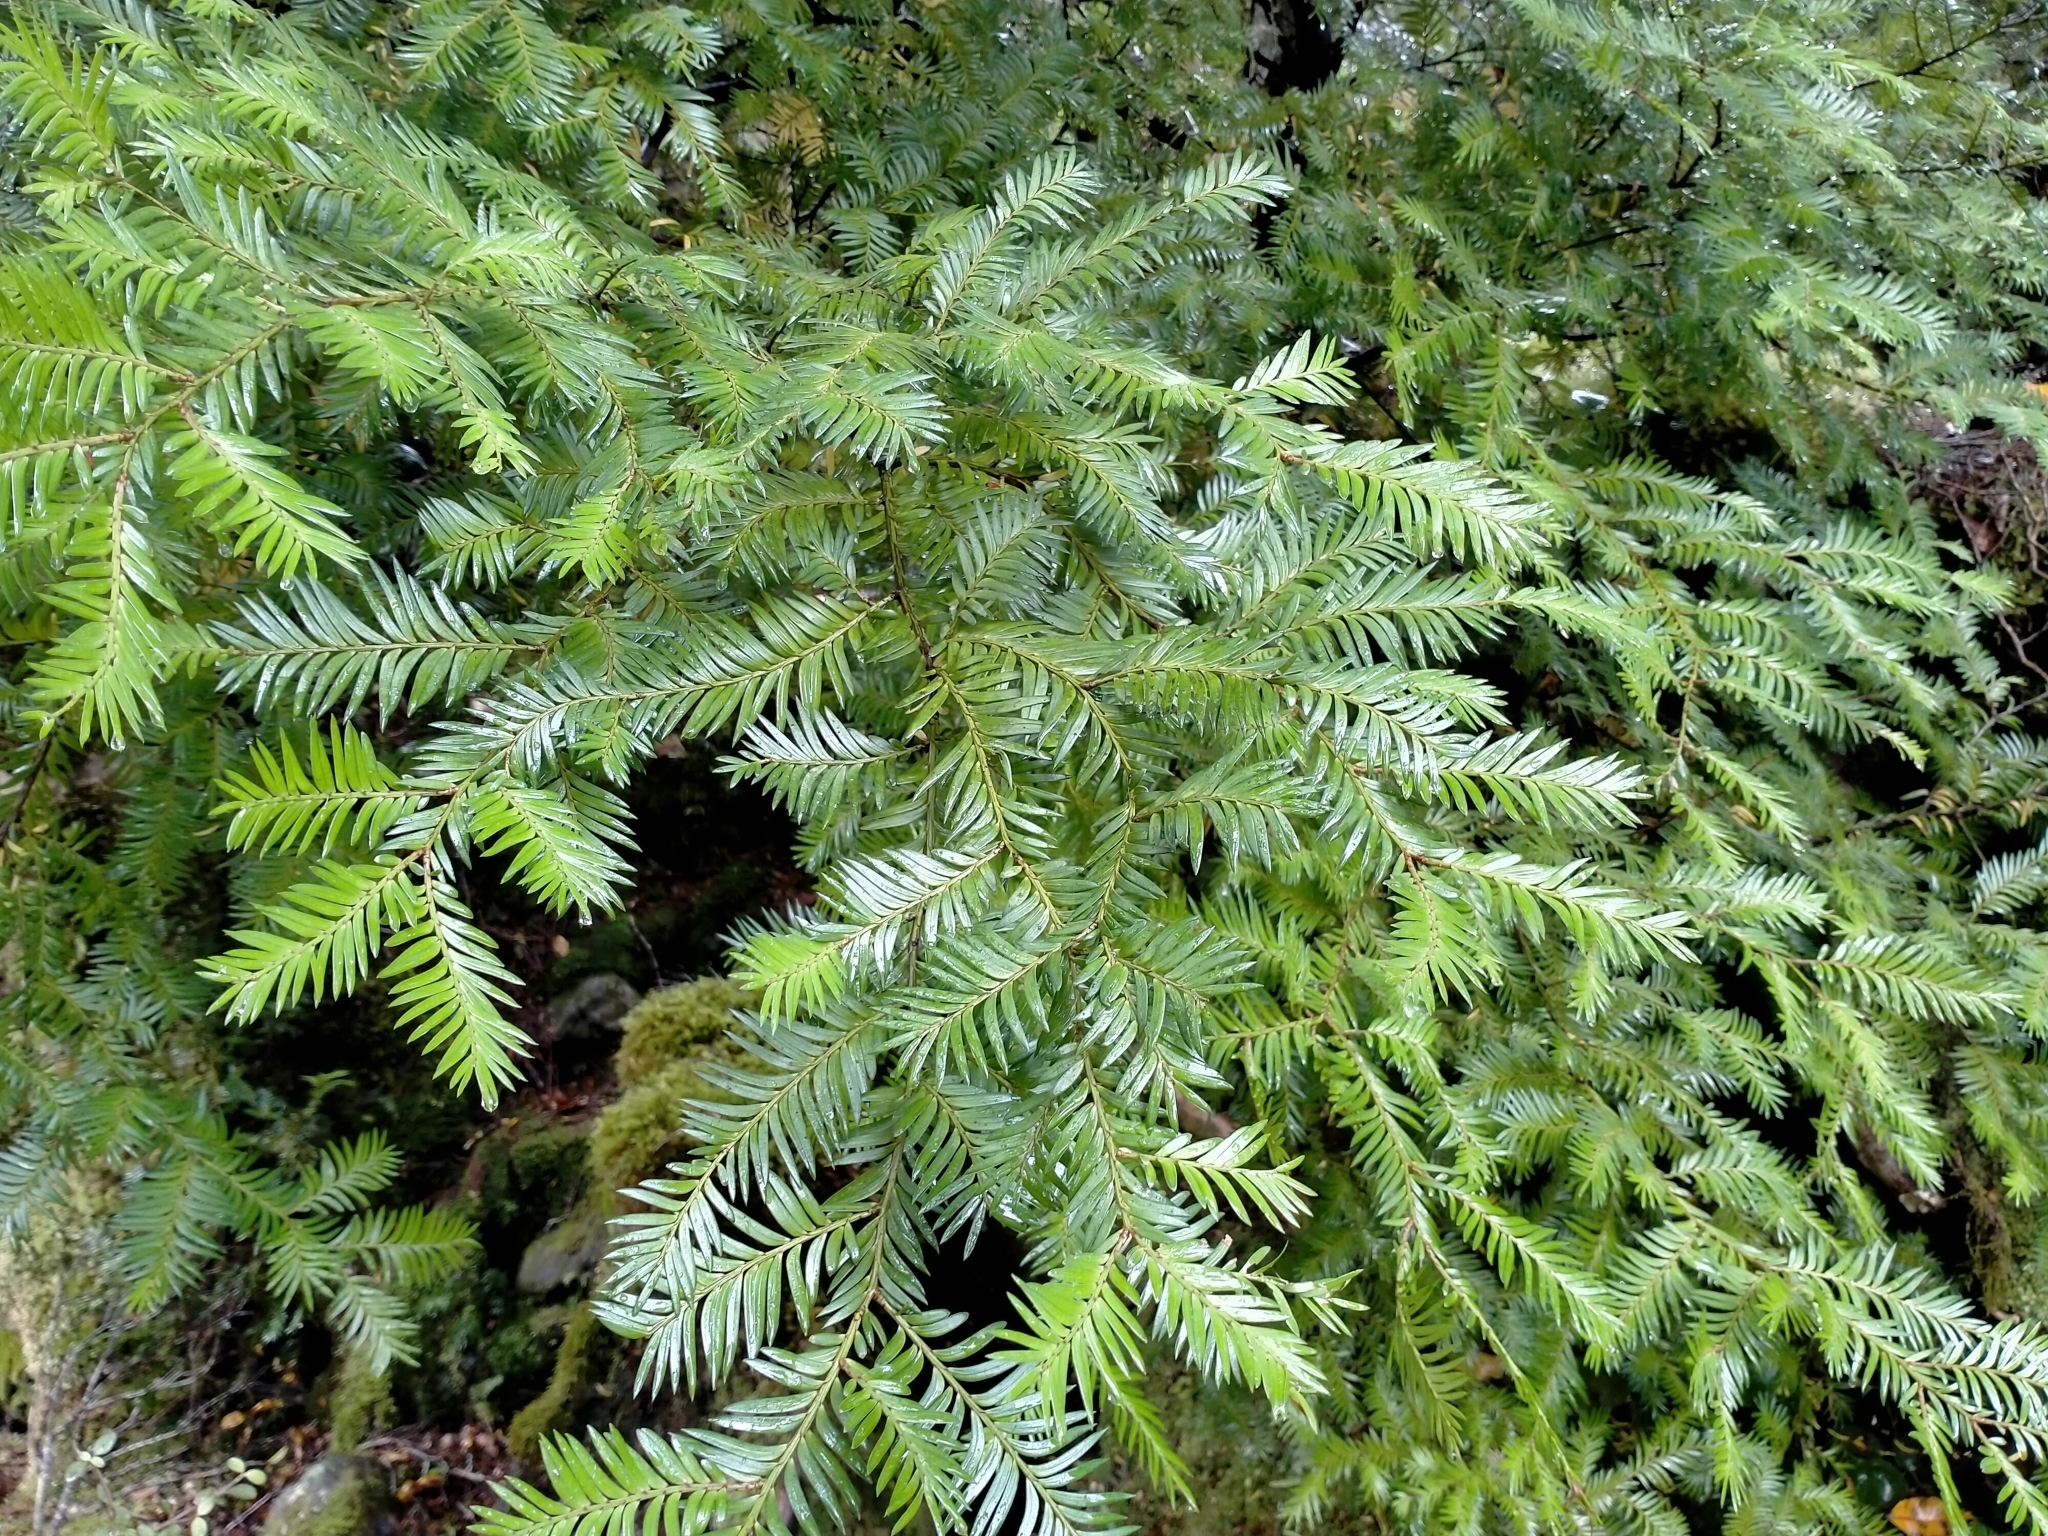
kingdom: Plantae
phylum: Tracheophyta
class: Pinopsida
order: Pinales
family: Podocarpaceae
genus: Prumnopitys
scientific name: Prumnopitys ferruginea
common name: Brown pine
